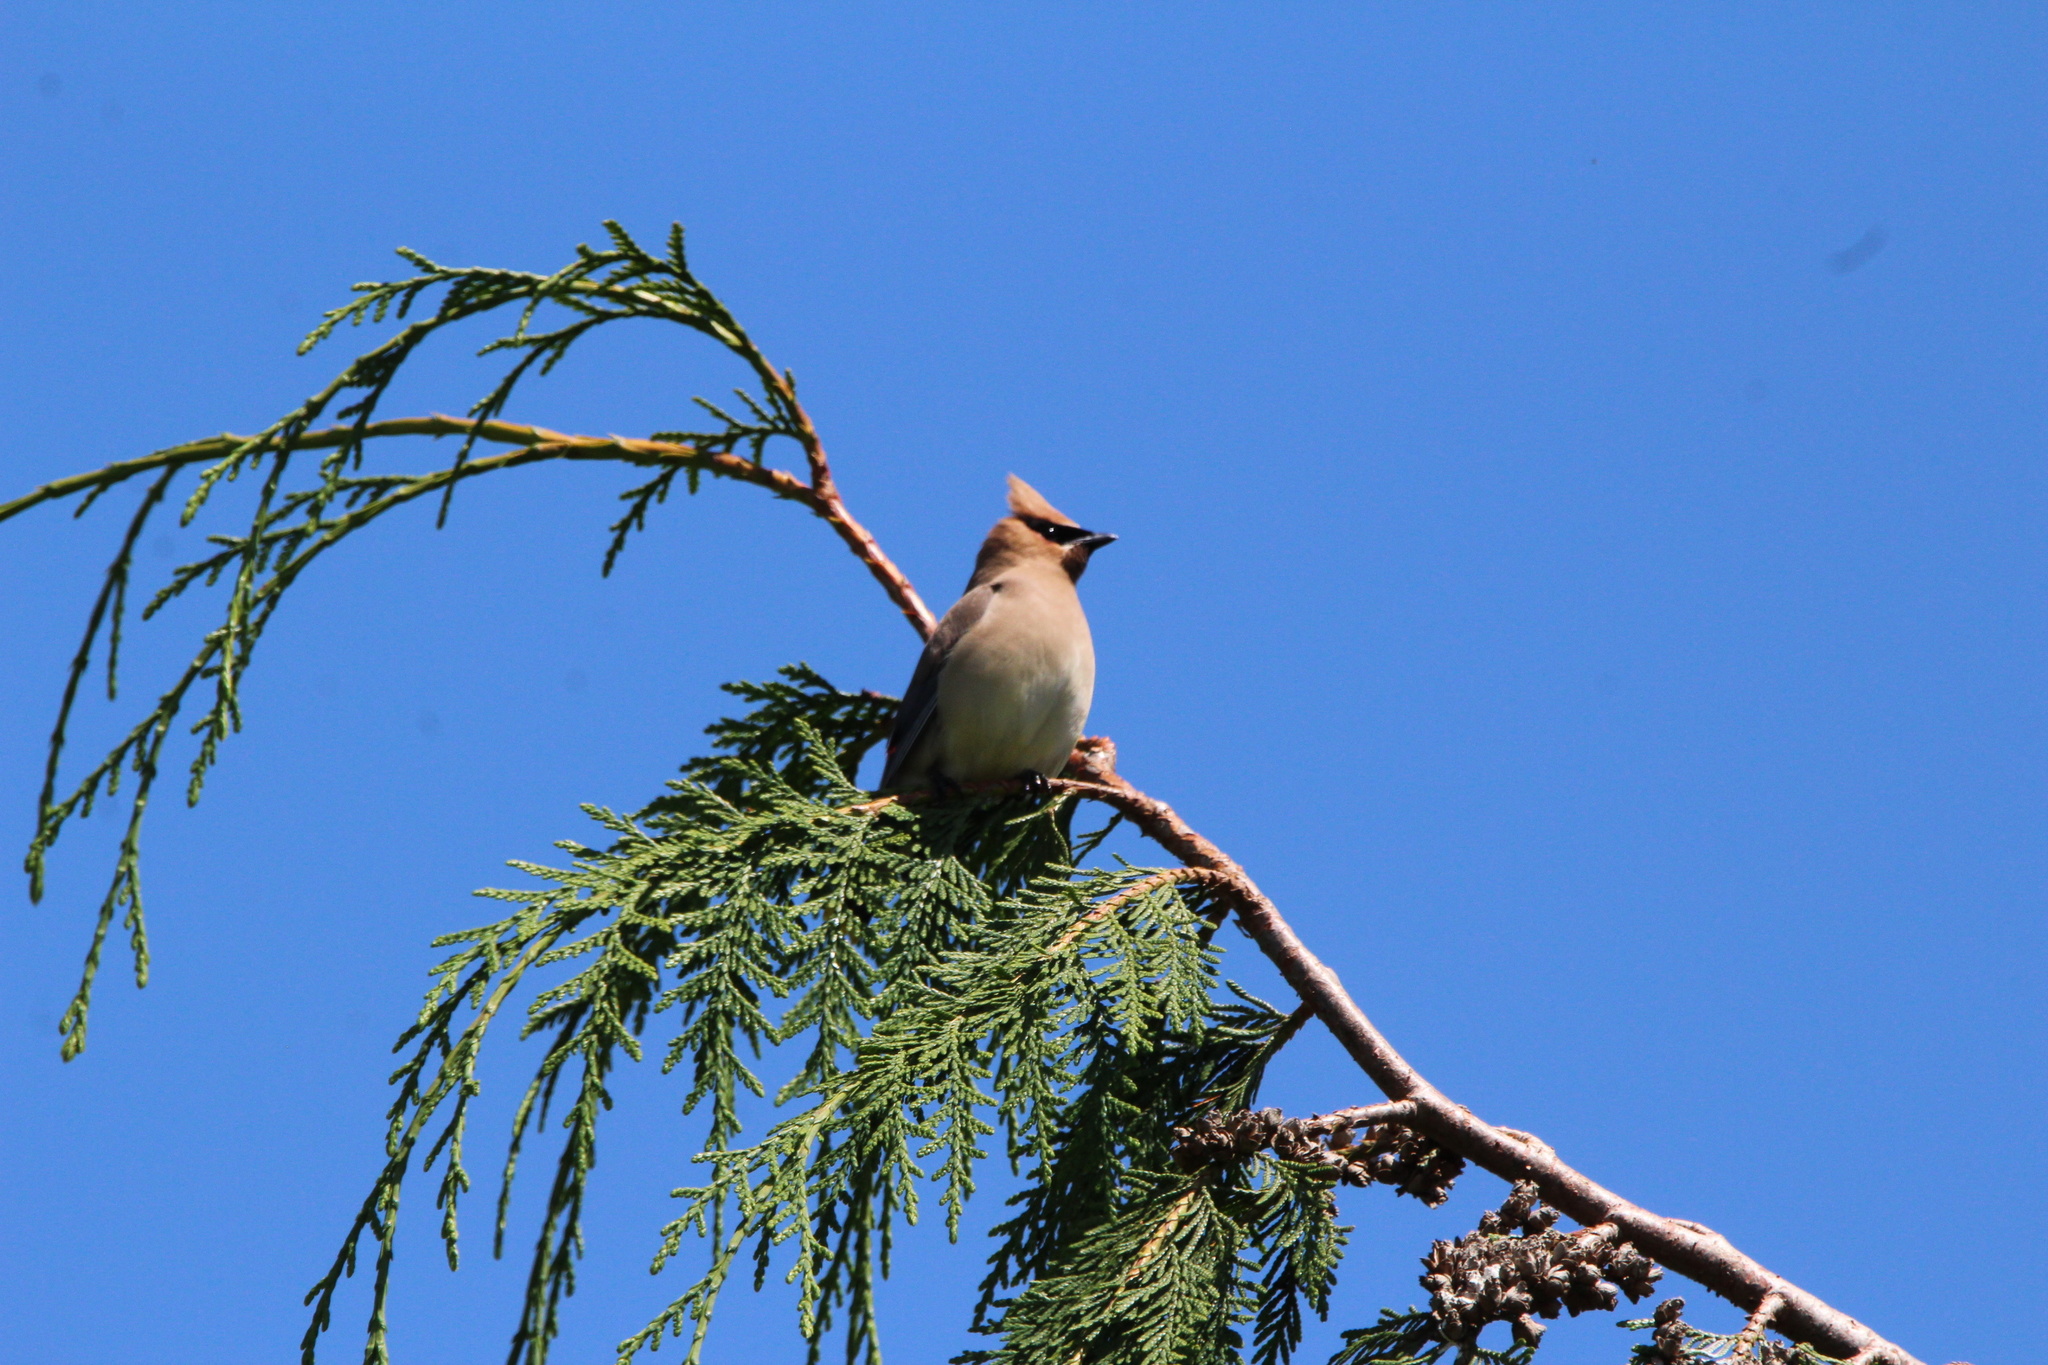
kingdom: Animalia
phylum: Chordata
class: Aves
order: Passeriformes
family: Bombycillidae
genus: Bombycilla
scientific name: Bombycilla cedrorum
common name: Cedar waxwing
